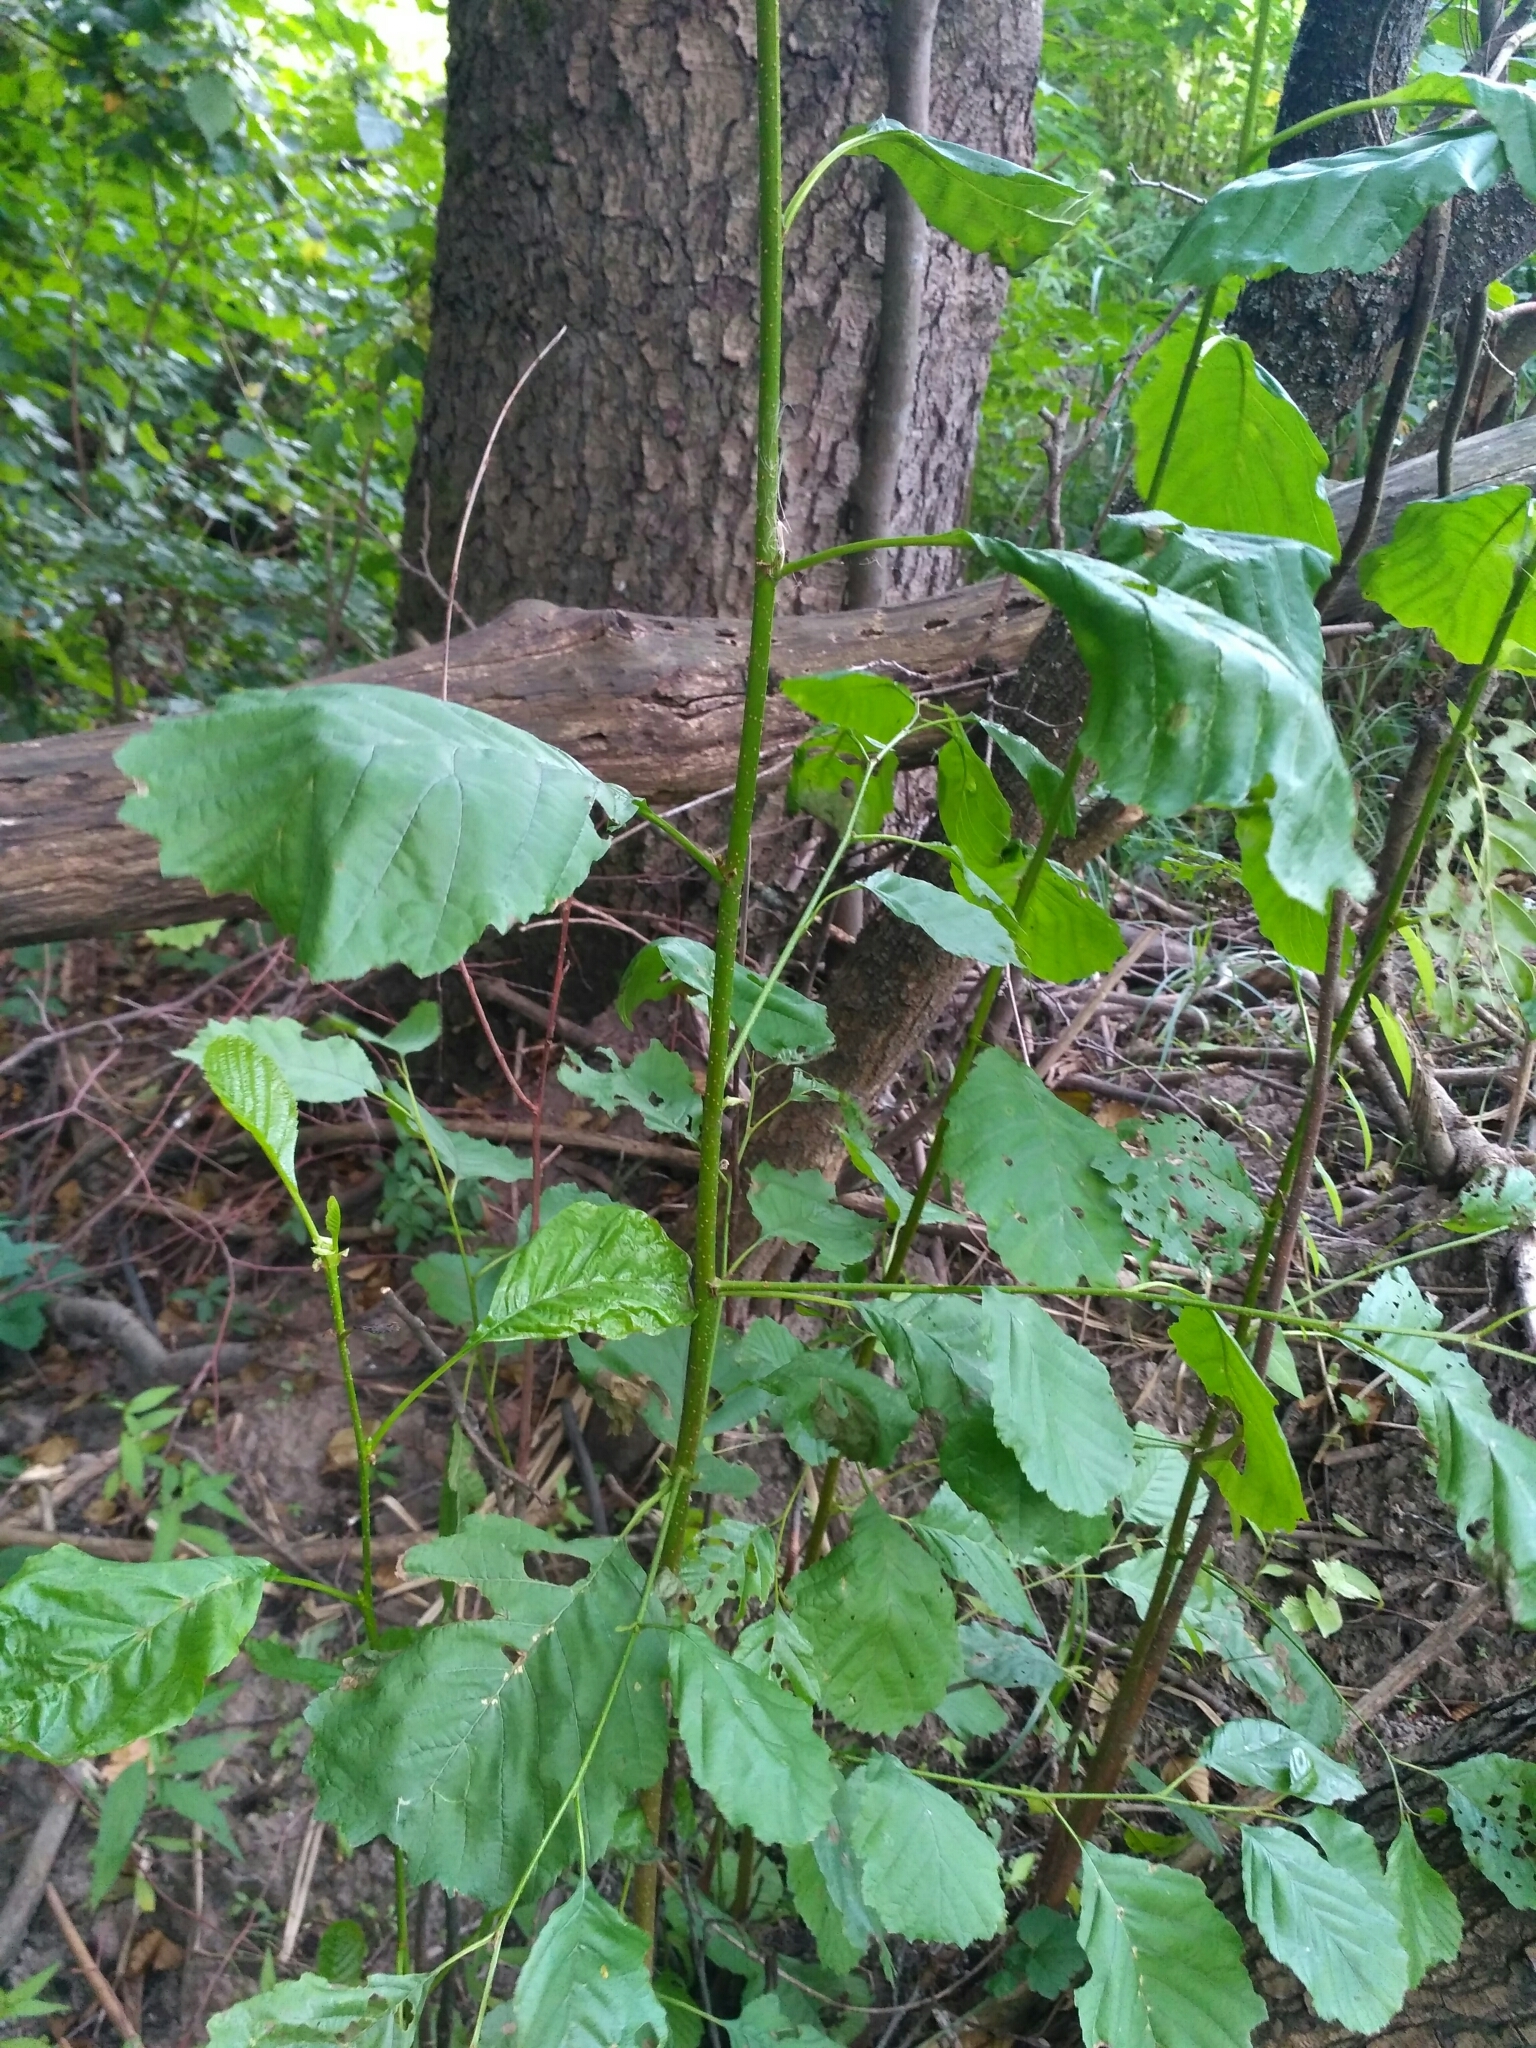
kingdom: Plantae
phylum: Tracheophyta
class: Magnoliopsida
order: Fagales
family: Betulaceae
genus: Alnus
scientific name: Alnus glutinosa
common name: Black alder
